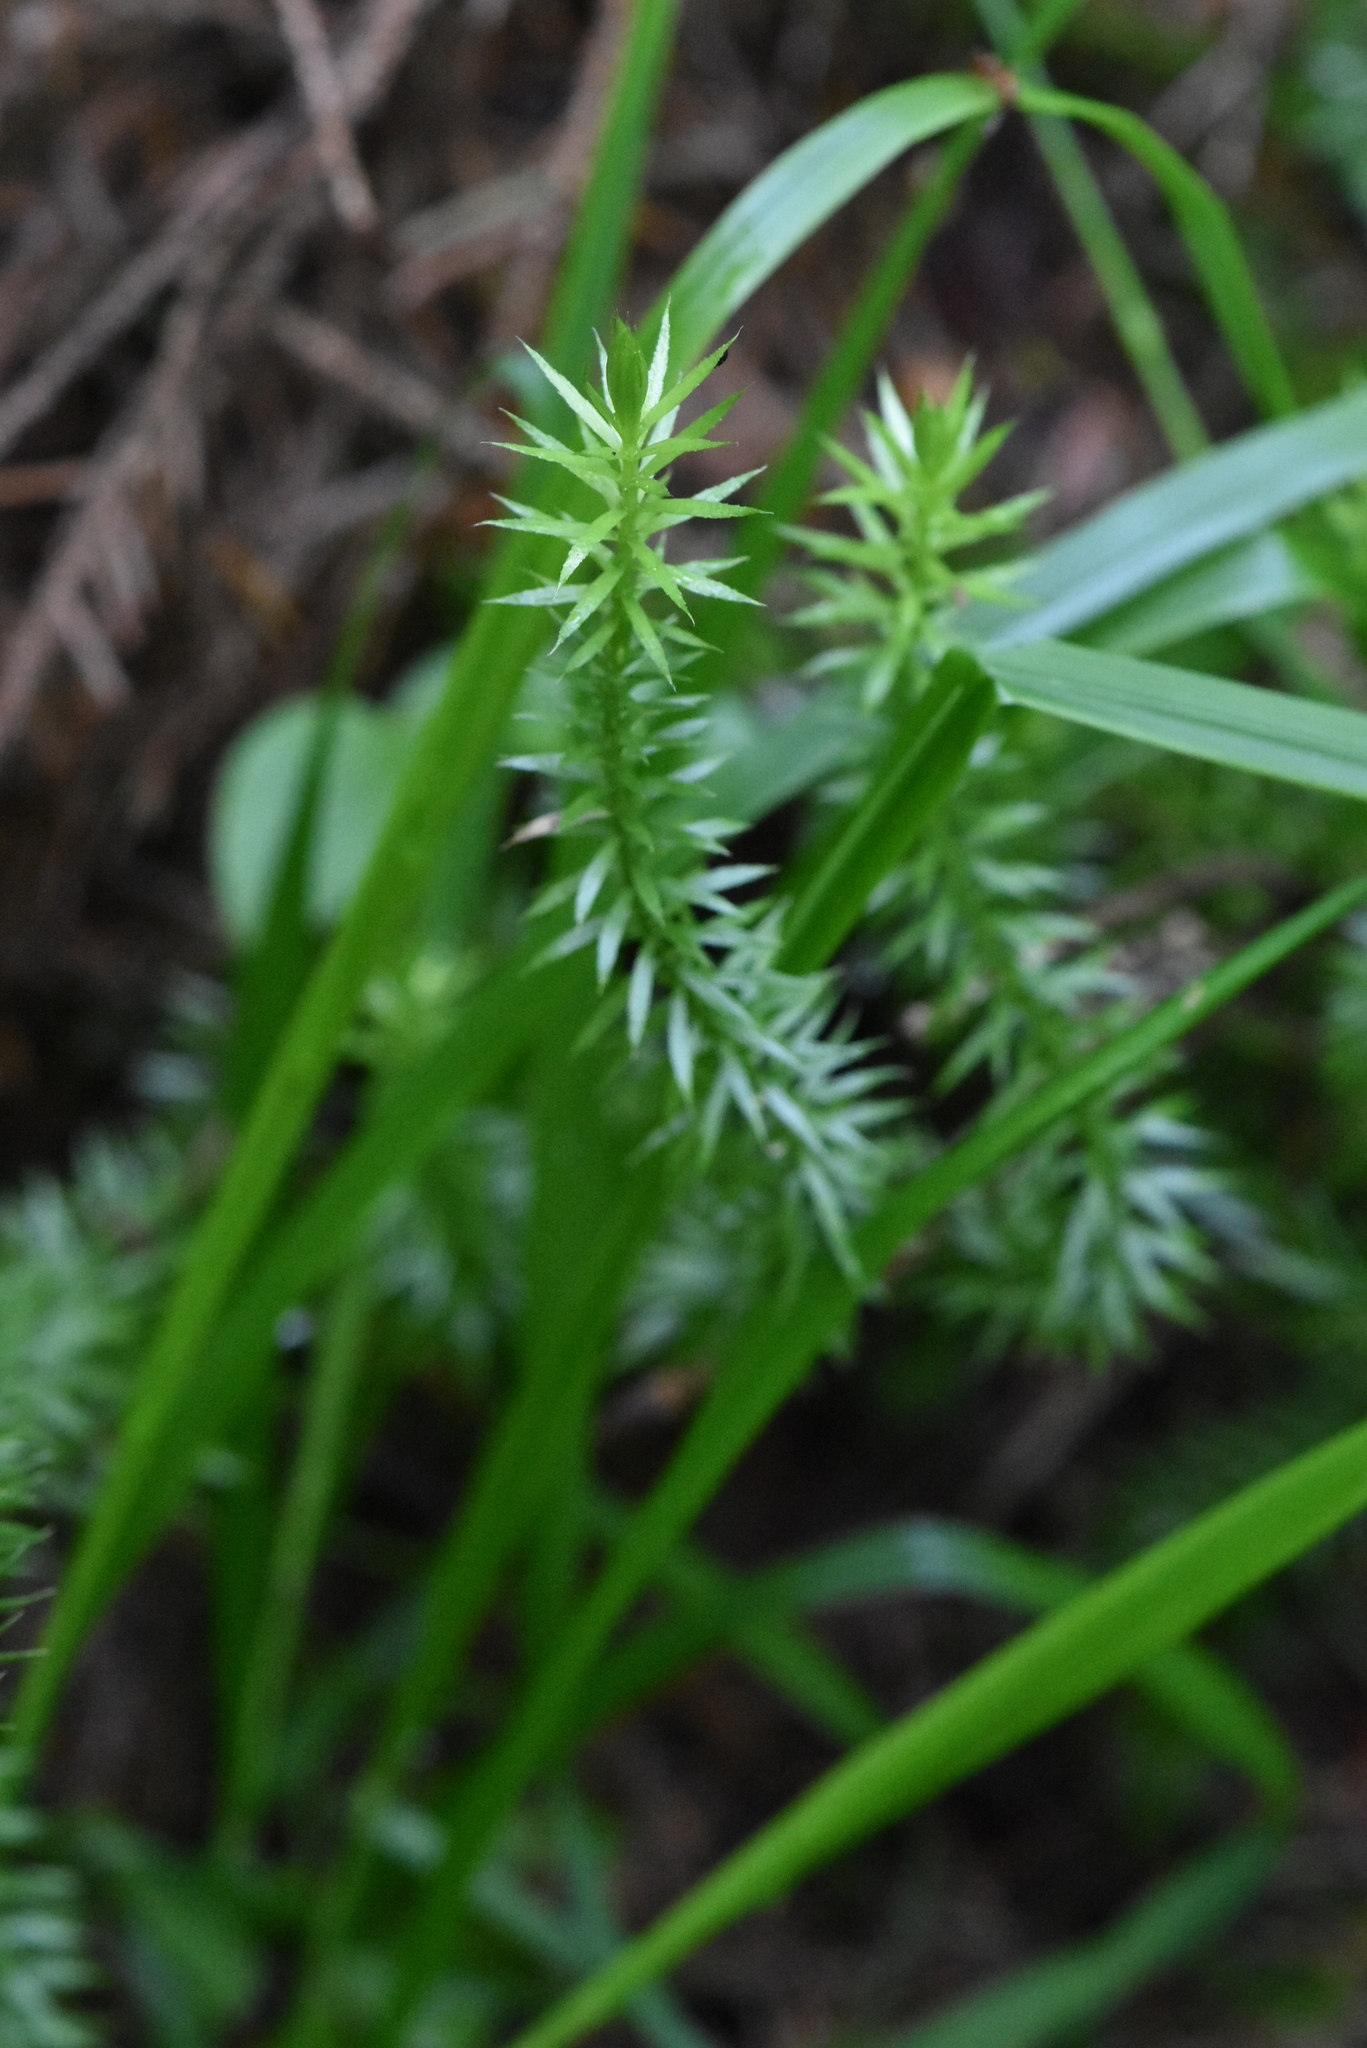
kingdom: Plantae
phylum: Tracheophyta
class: Lycopodiopsida
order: Lycopodiales
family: Lycopodiaceae
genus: Spinulum
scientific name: Spinulum annotinum
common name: Interrupted club-moss
